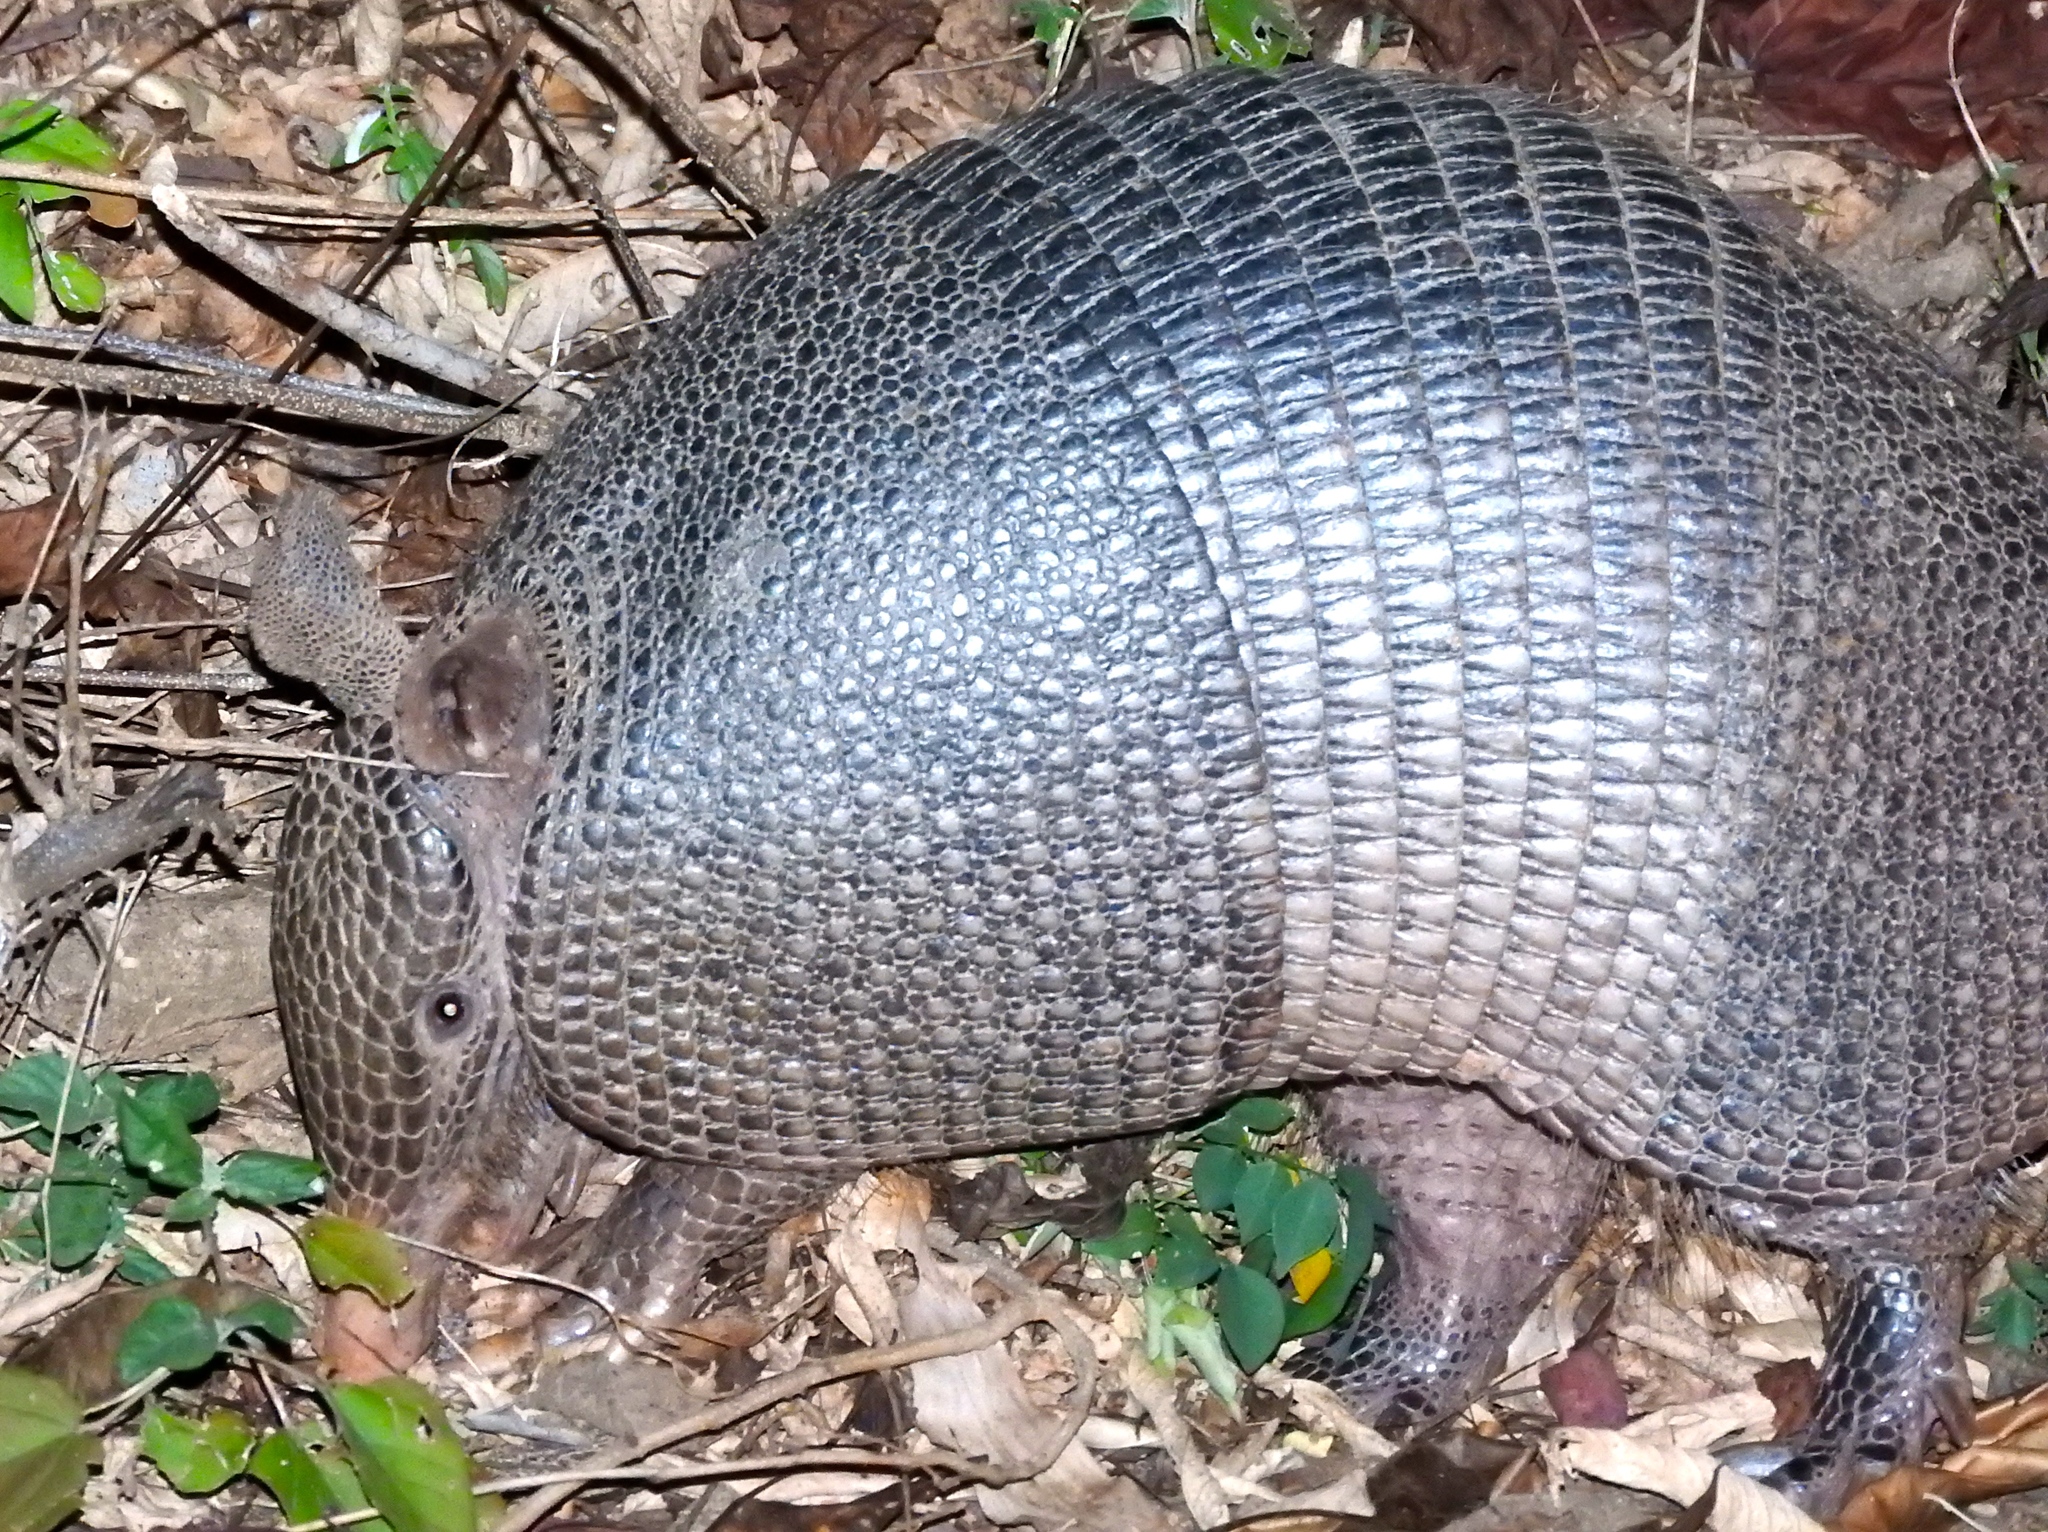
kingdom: Animalia
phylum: Chordata
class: Mammalia
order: Cingulata
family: Dasypodidae
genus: Dasypus
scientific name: Dasypus novemcinctus
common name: Nine-banded armadillo
